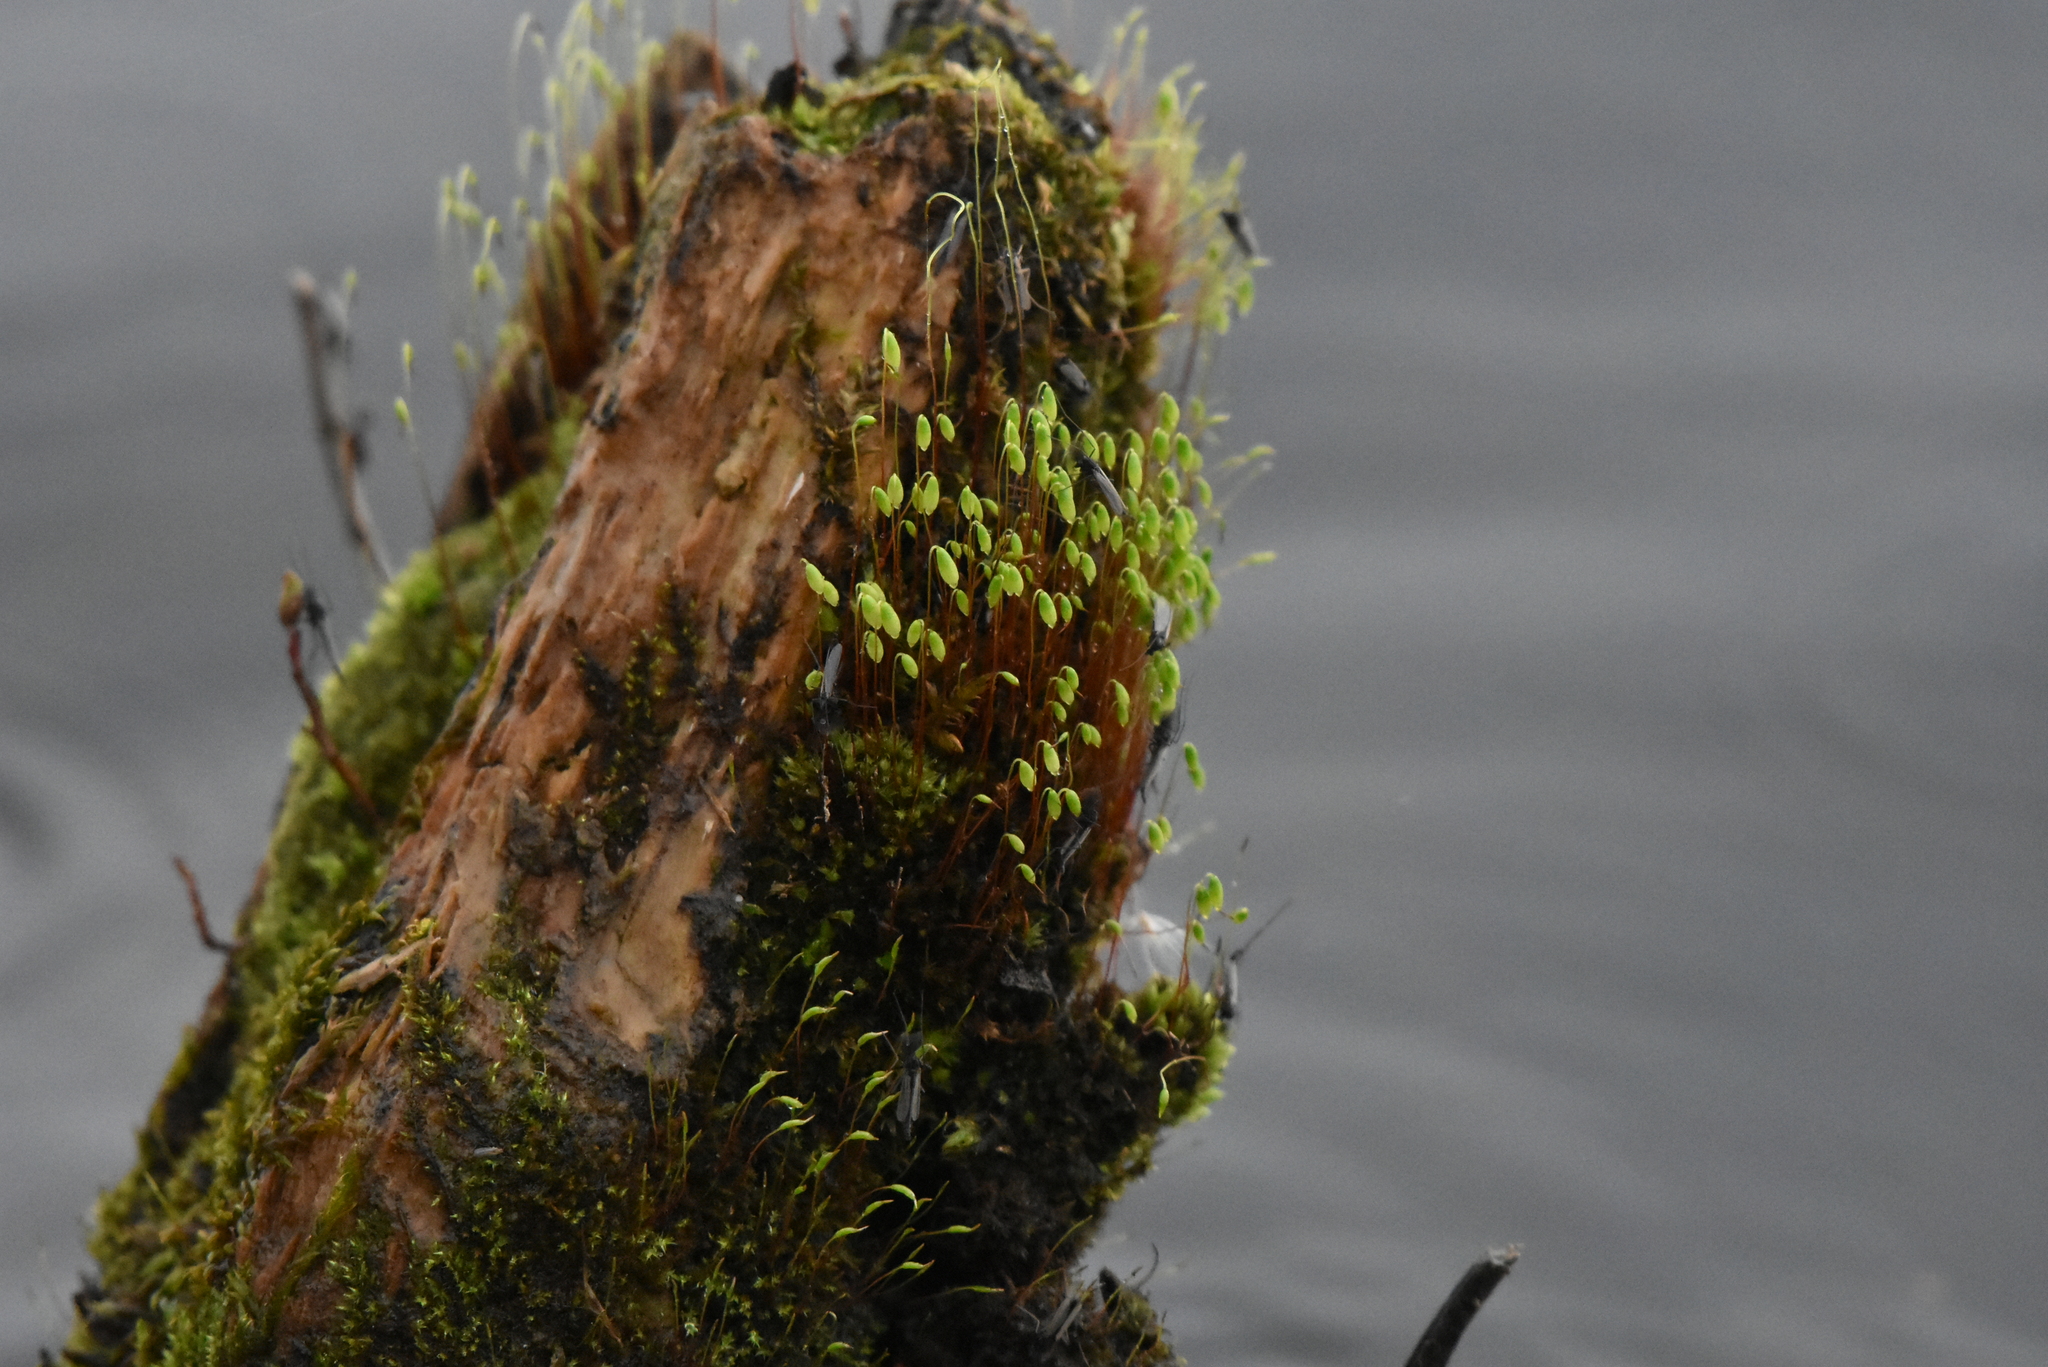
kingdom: Plantae
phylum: Bryophyta
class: Bryopsida
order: Bryales
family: Mniaceae
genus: Pohlia
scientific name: Pohlia nutans
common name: Nodding thread-moss
